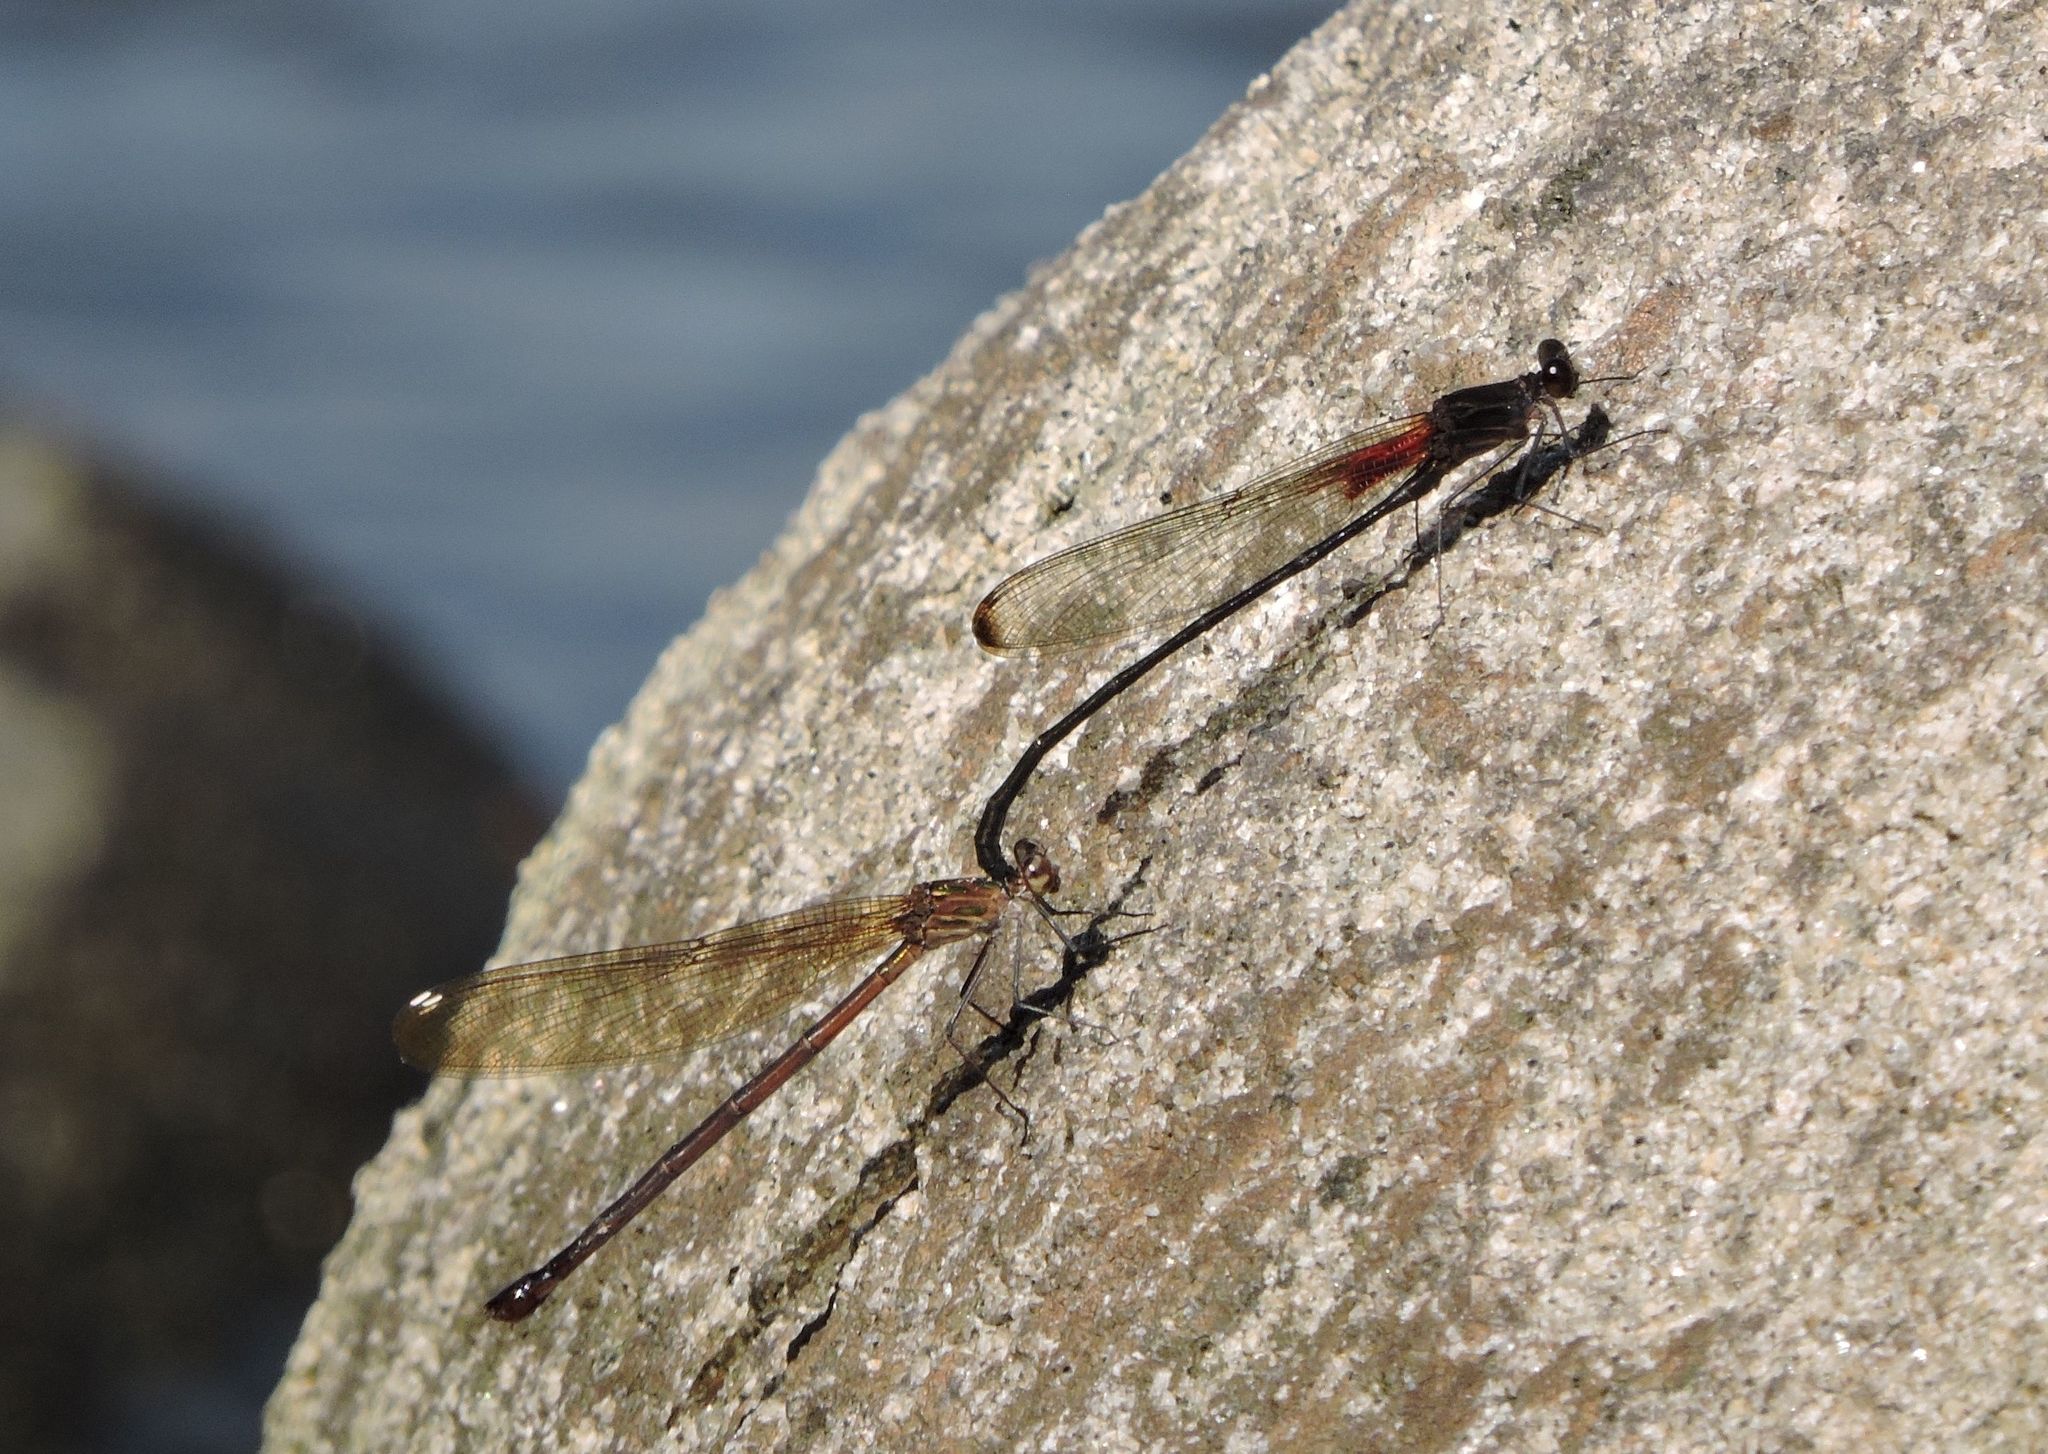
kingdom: Animalia
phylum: Arthropoda
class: Insecta
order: Odonata
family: Calopterygidae
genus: Hetaerina
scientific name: Hetaerina titia
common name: Smoky rubyspot
